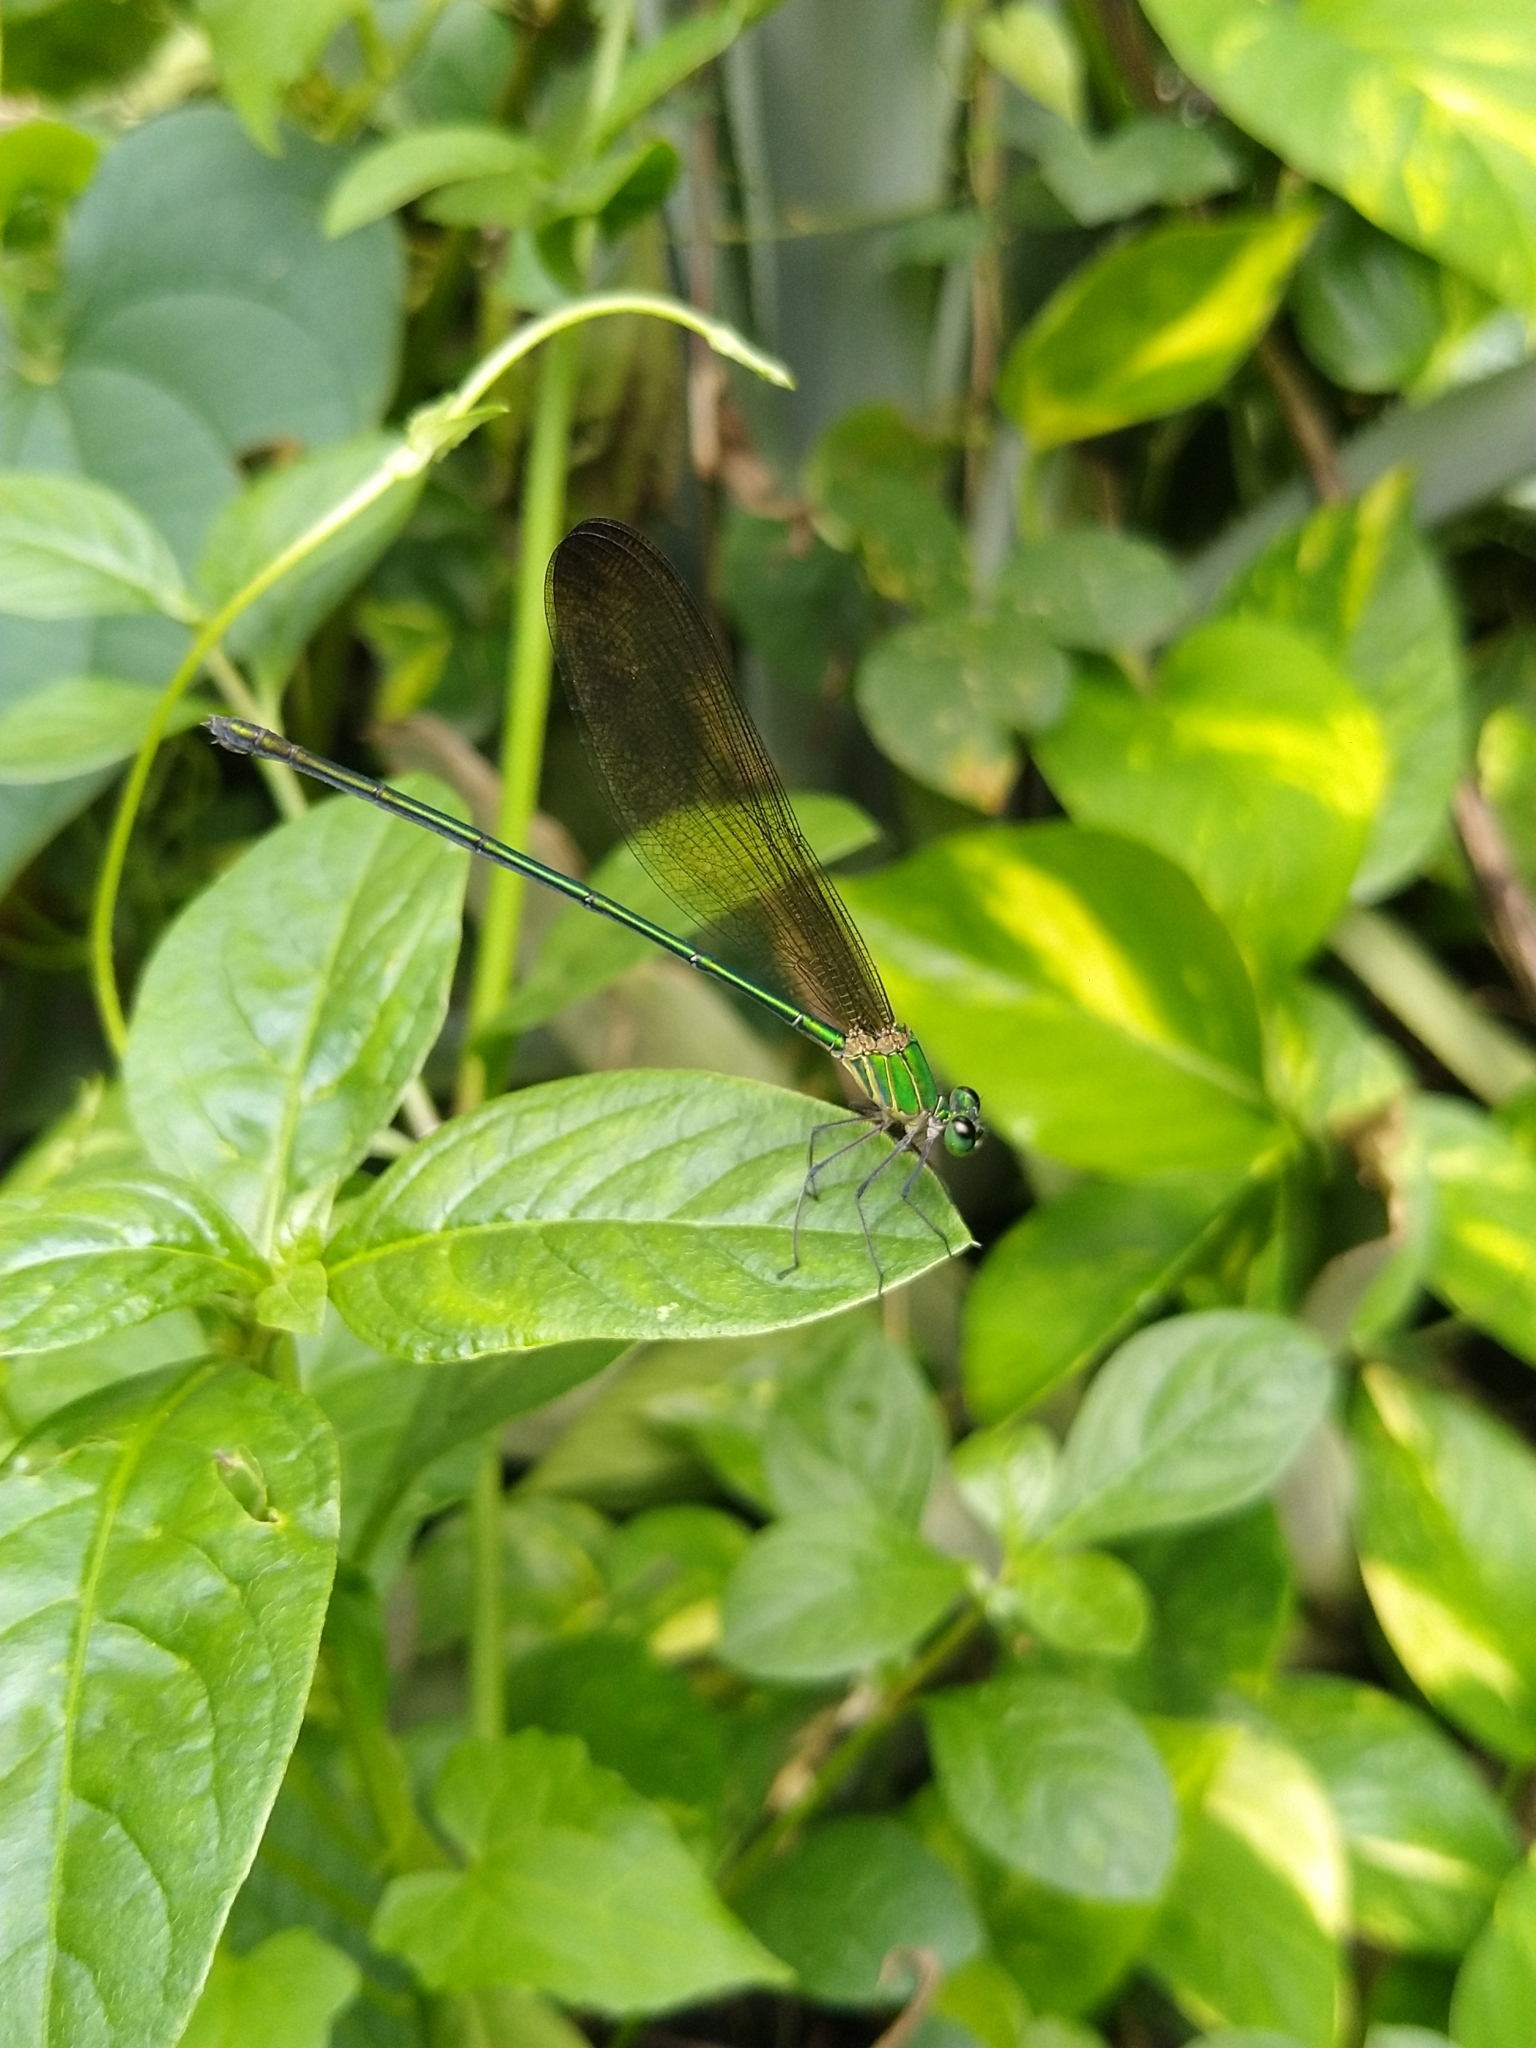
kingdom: Animalia
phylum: Arthropoda
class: Insecta
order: Odonata
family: Calopterygidae
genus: Vestalis
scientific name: Vestalis apicalis
